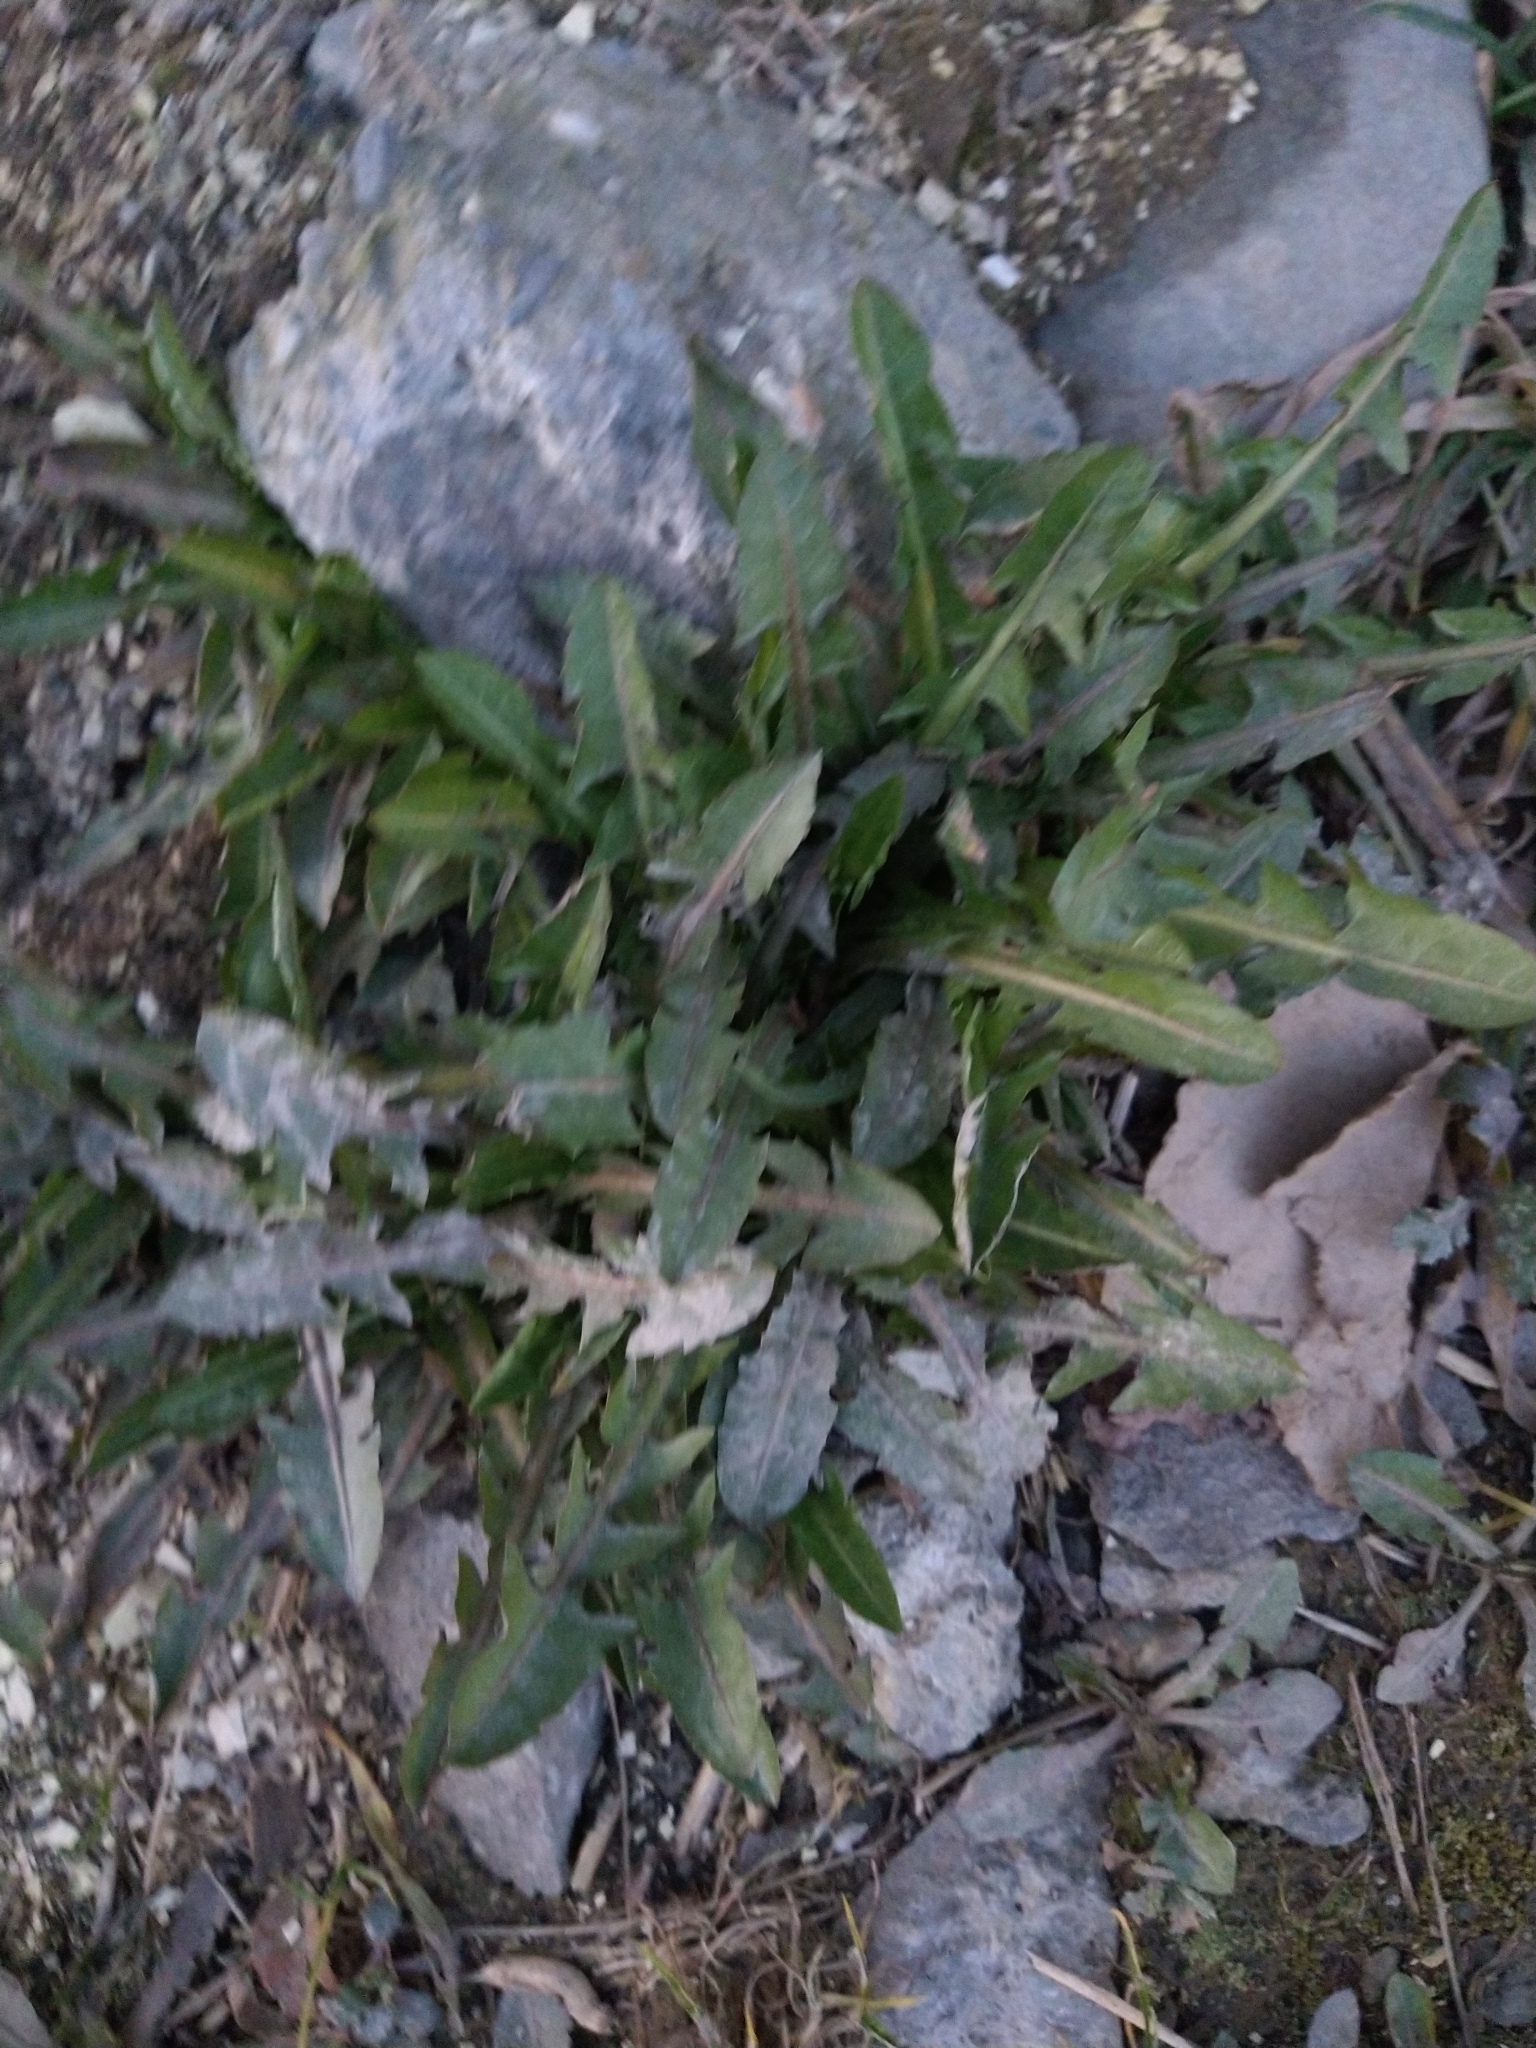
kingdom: Plantae
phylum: Tracheophyta
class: Magnoliopsida
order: Asterales
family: Asteraceae
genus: Taraxacum
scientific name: Taraxacum officinale
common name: Common dandelion
